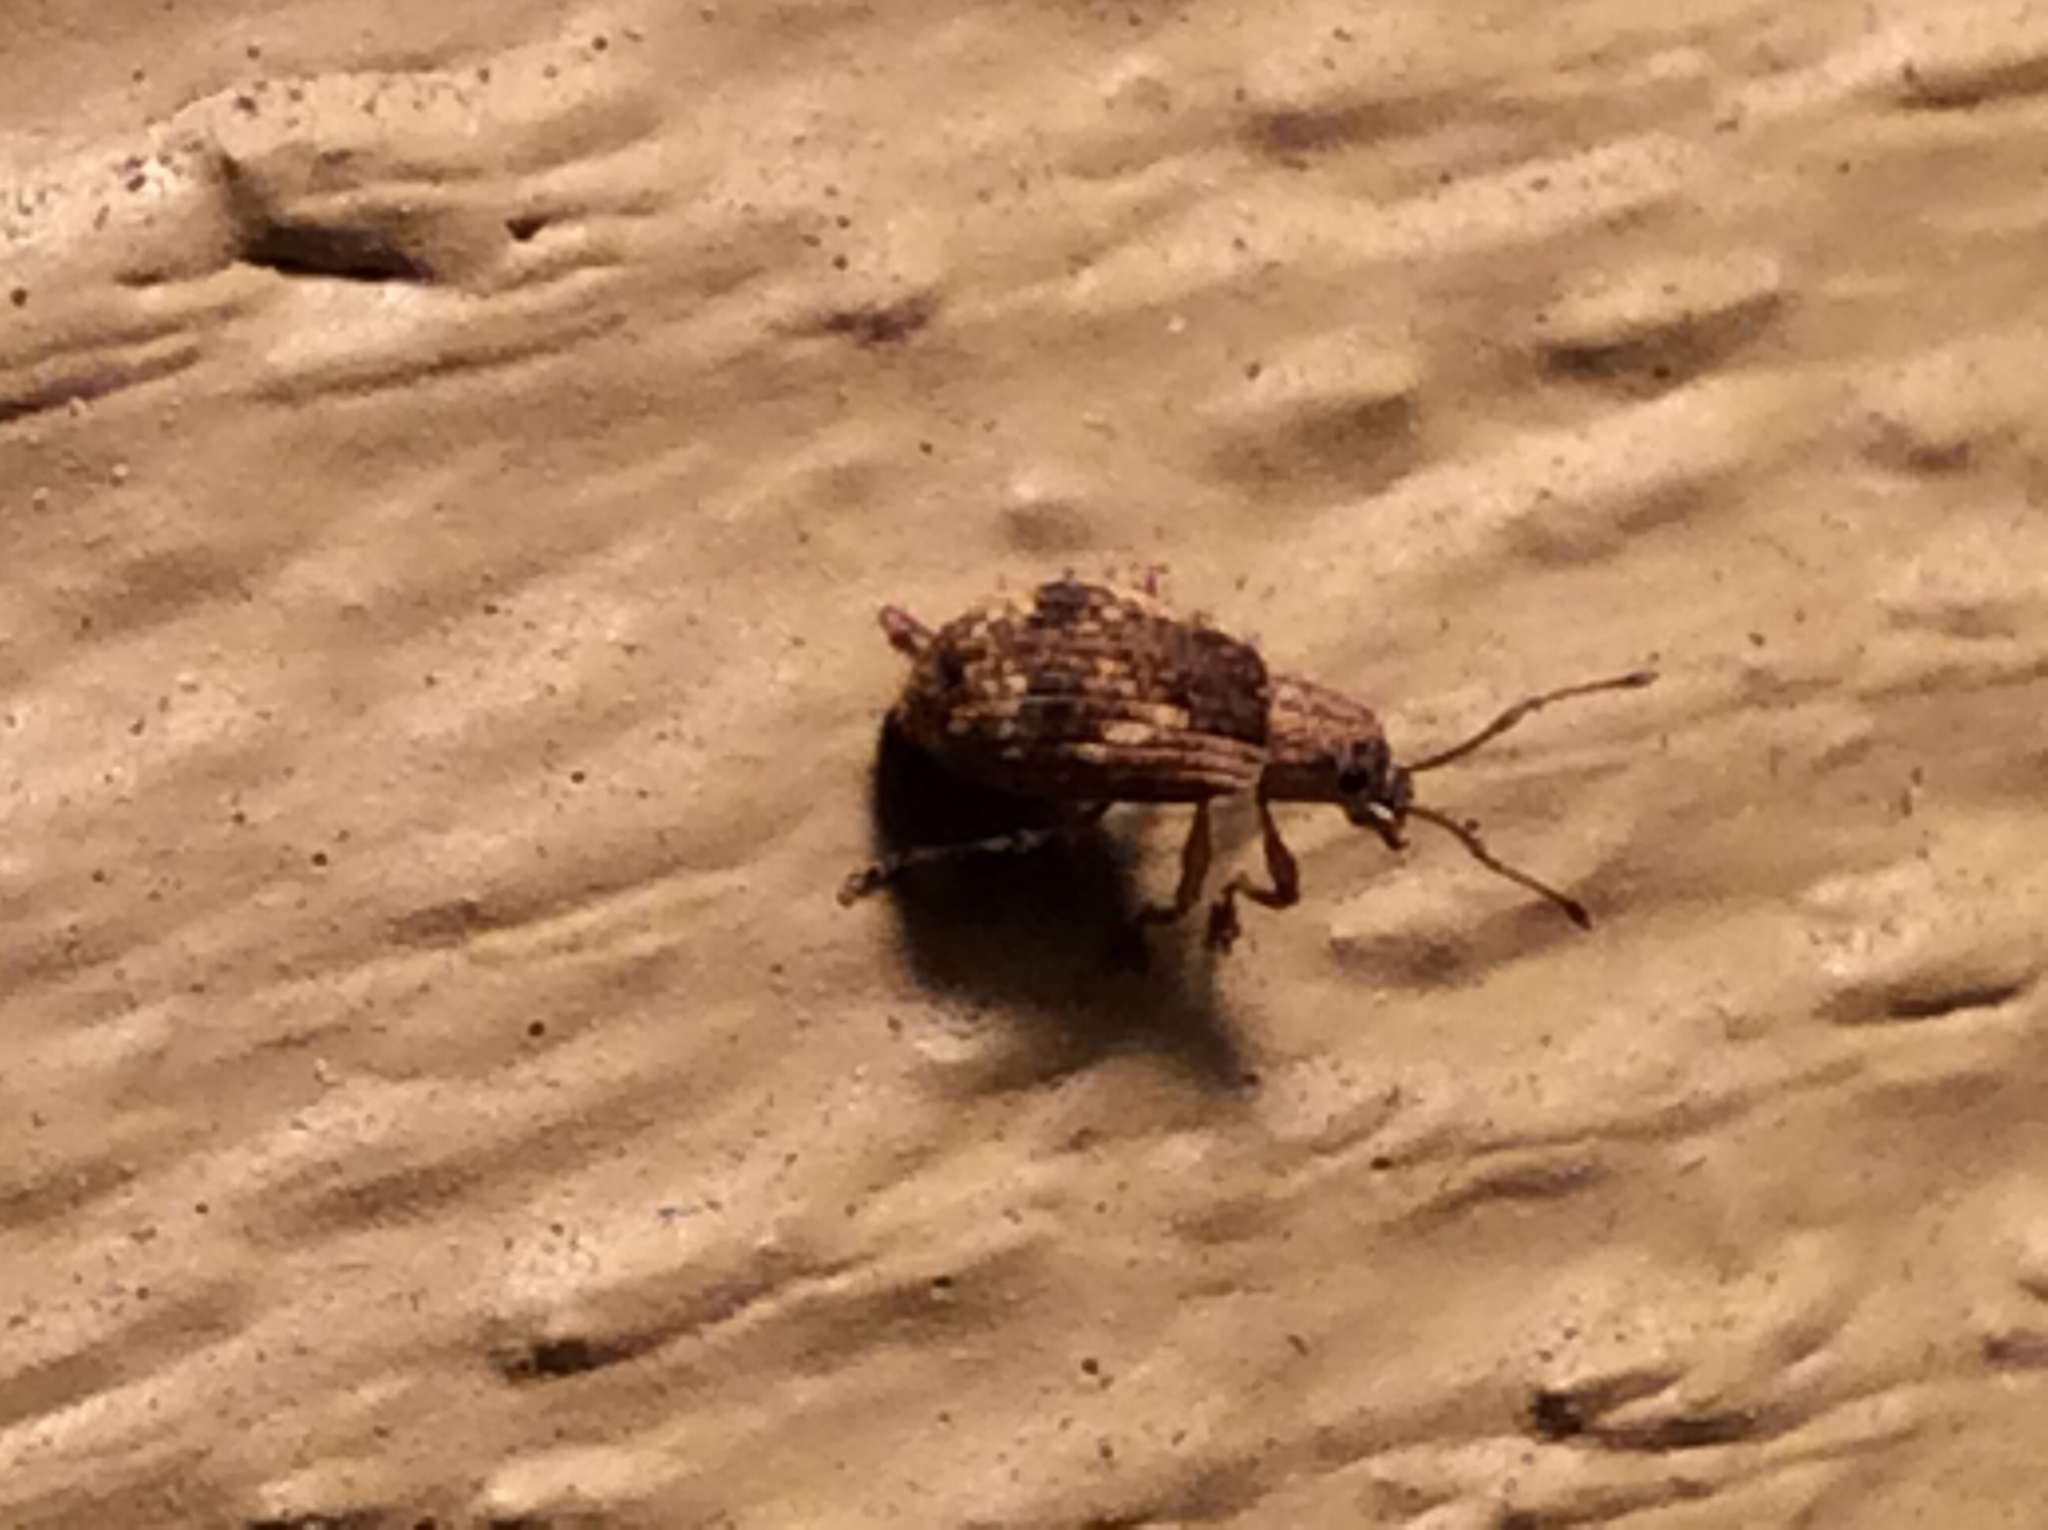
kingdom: Animalia
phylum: Arthropoda
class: Insecta
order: Coleoptera
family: Curculionidae
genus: Pseudoedophrys
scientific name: Pseudoedophrys hilleri
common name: Weevil
